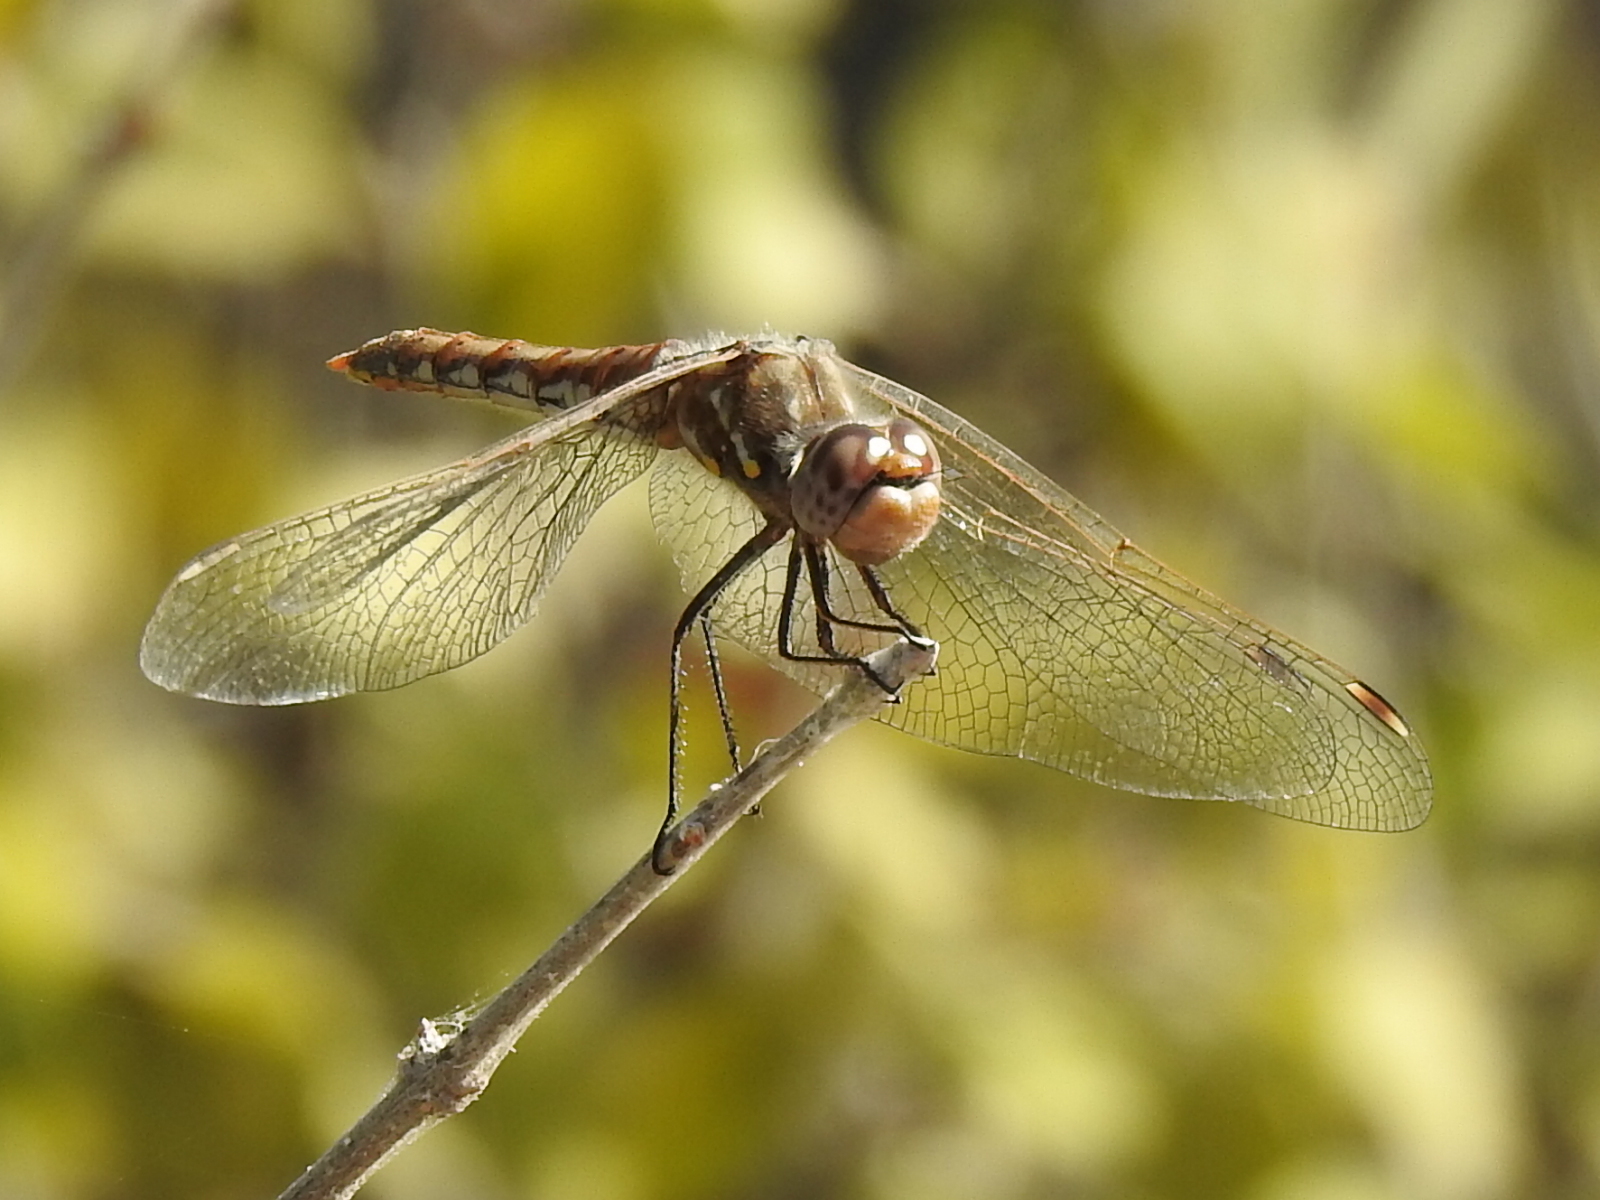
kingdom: Animalia
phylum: Arthropoda
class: Insecta
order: Odonata
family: Libellulidae
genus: Sympetrum
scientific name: Sympetrum corruptum
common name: Variegated meadowhawk
